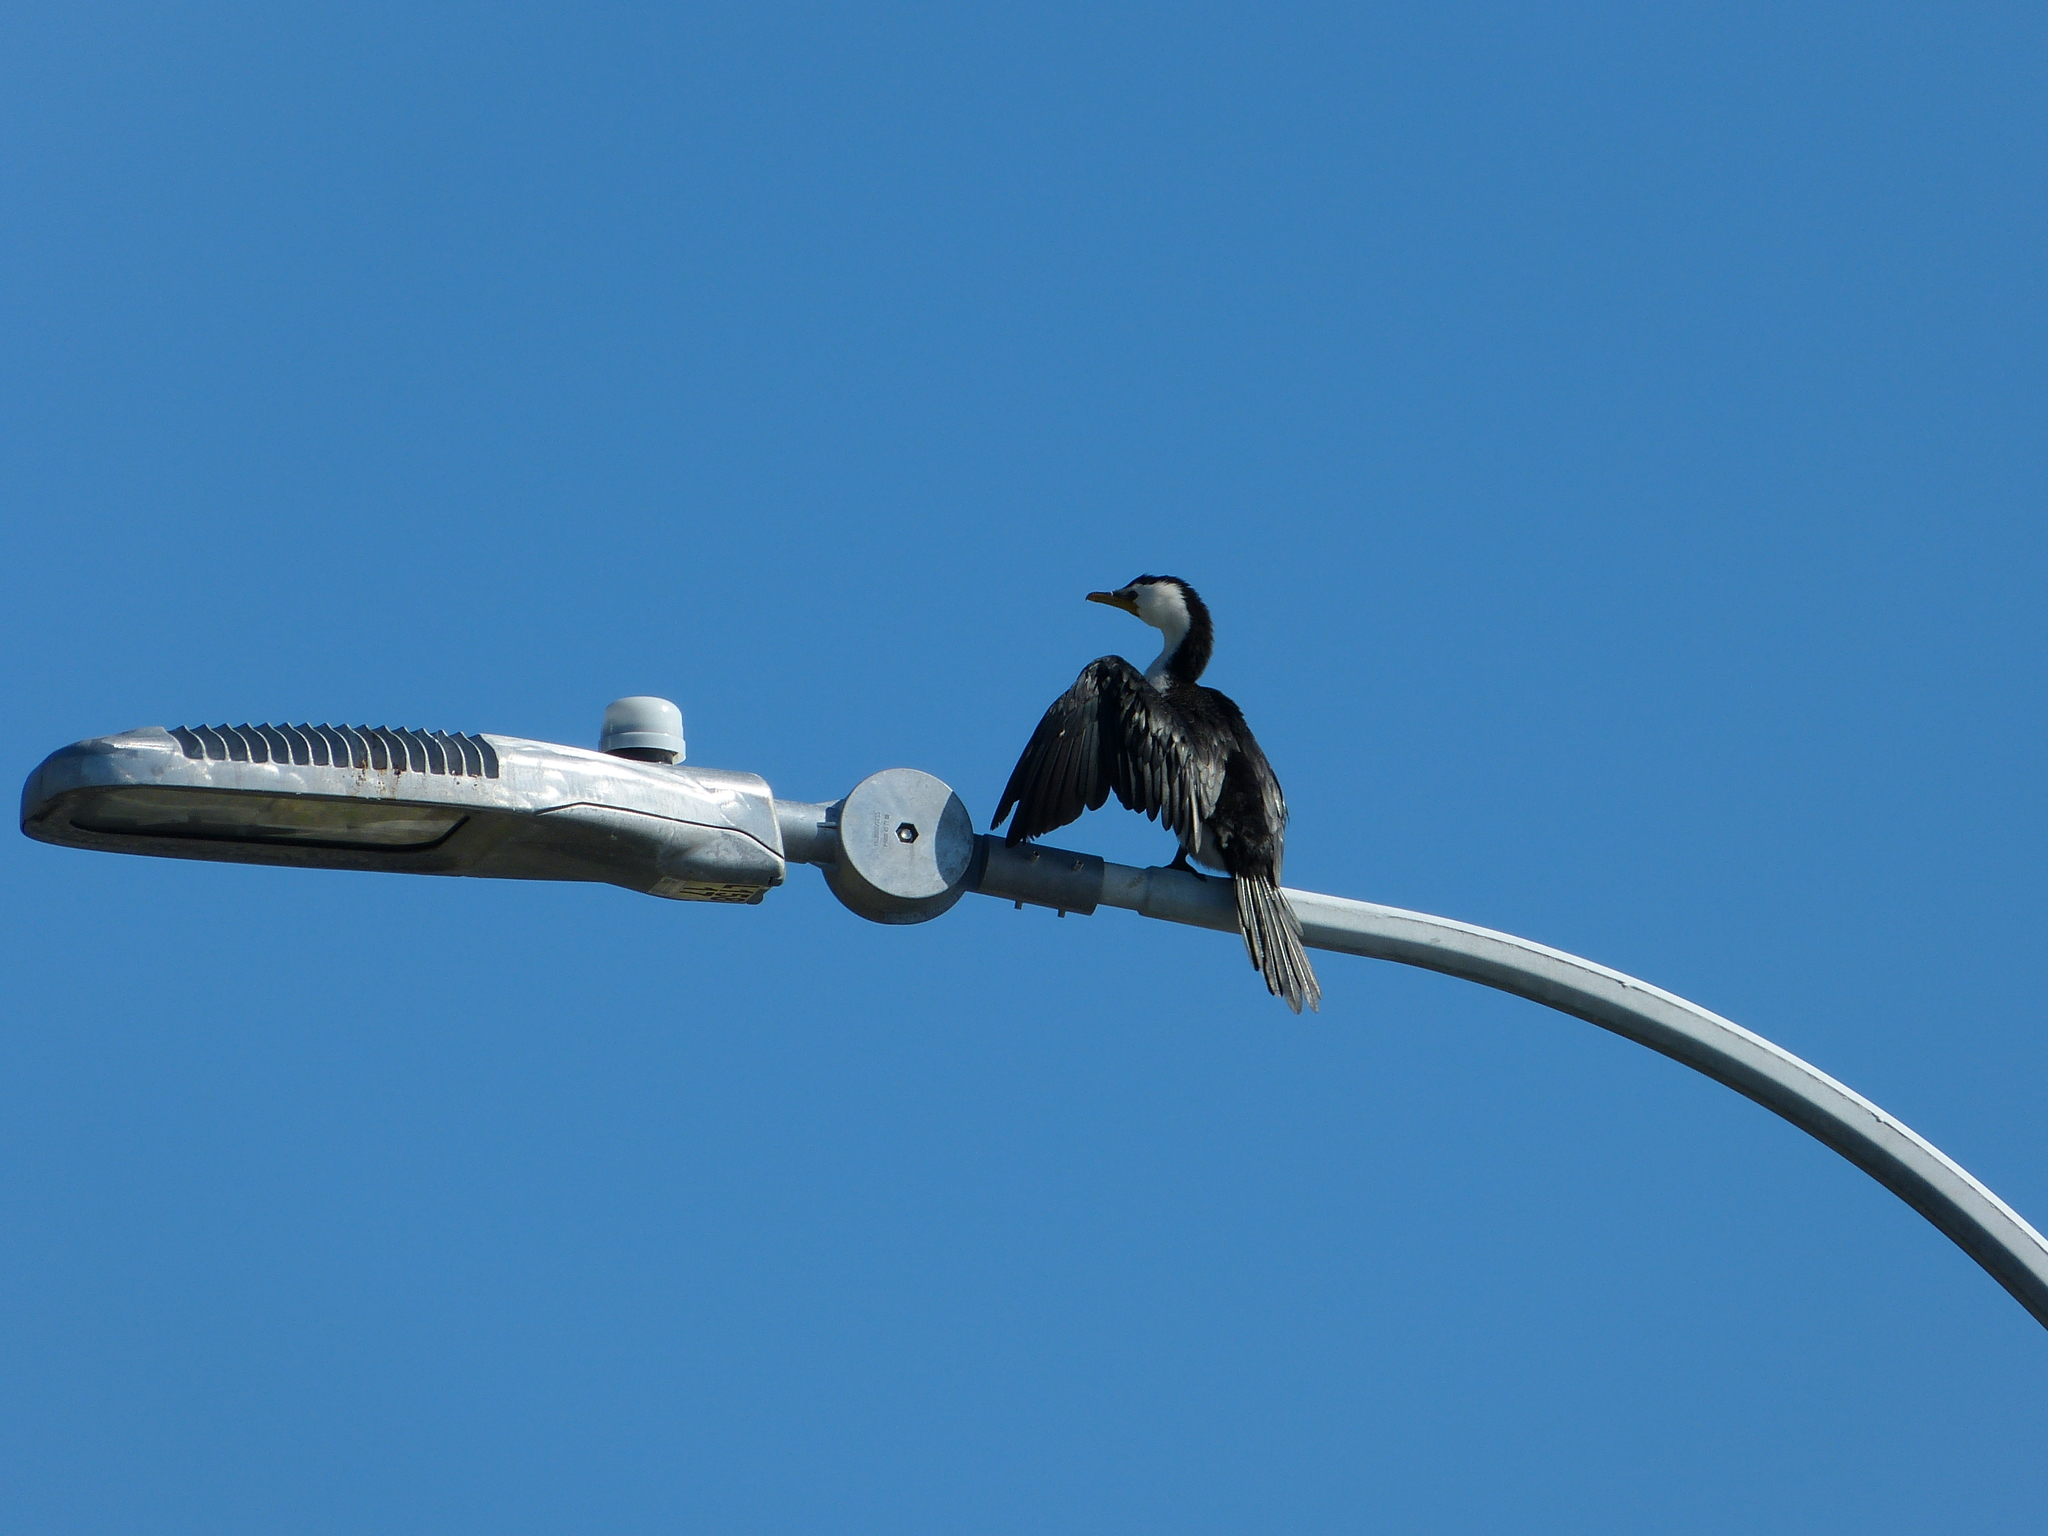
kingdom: Animalia
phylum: Chordata
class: Aves
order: Suliformes
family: Phalacrocoracidae
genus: Microcarbo
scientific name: Microcarbo melanoleucos
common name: Little pied cormorant
